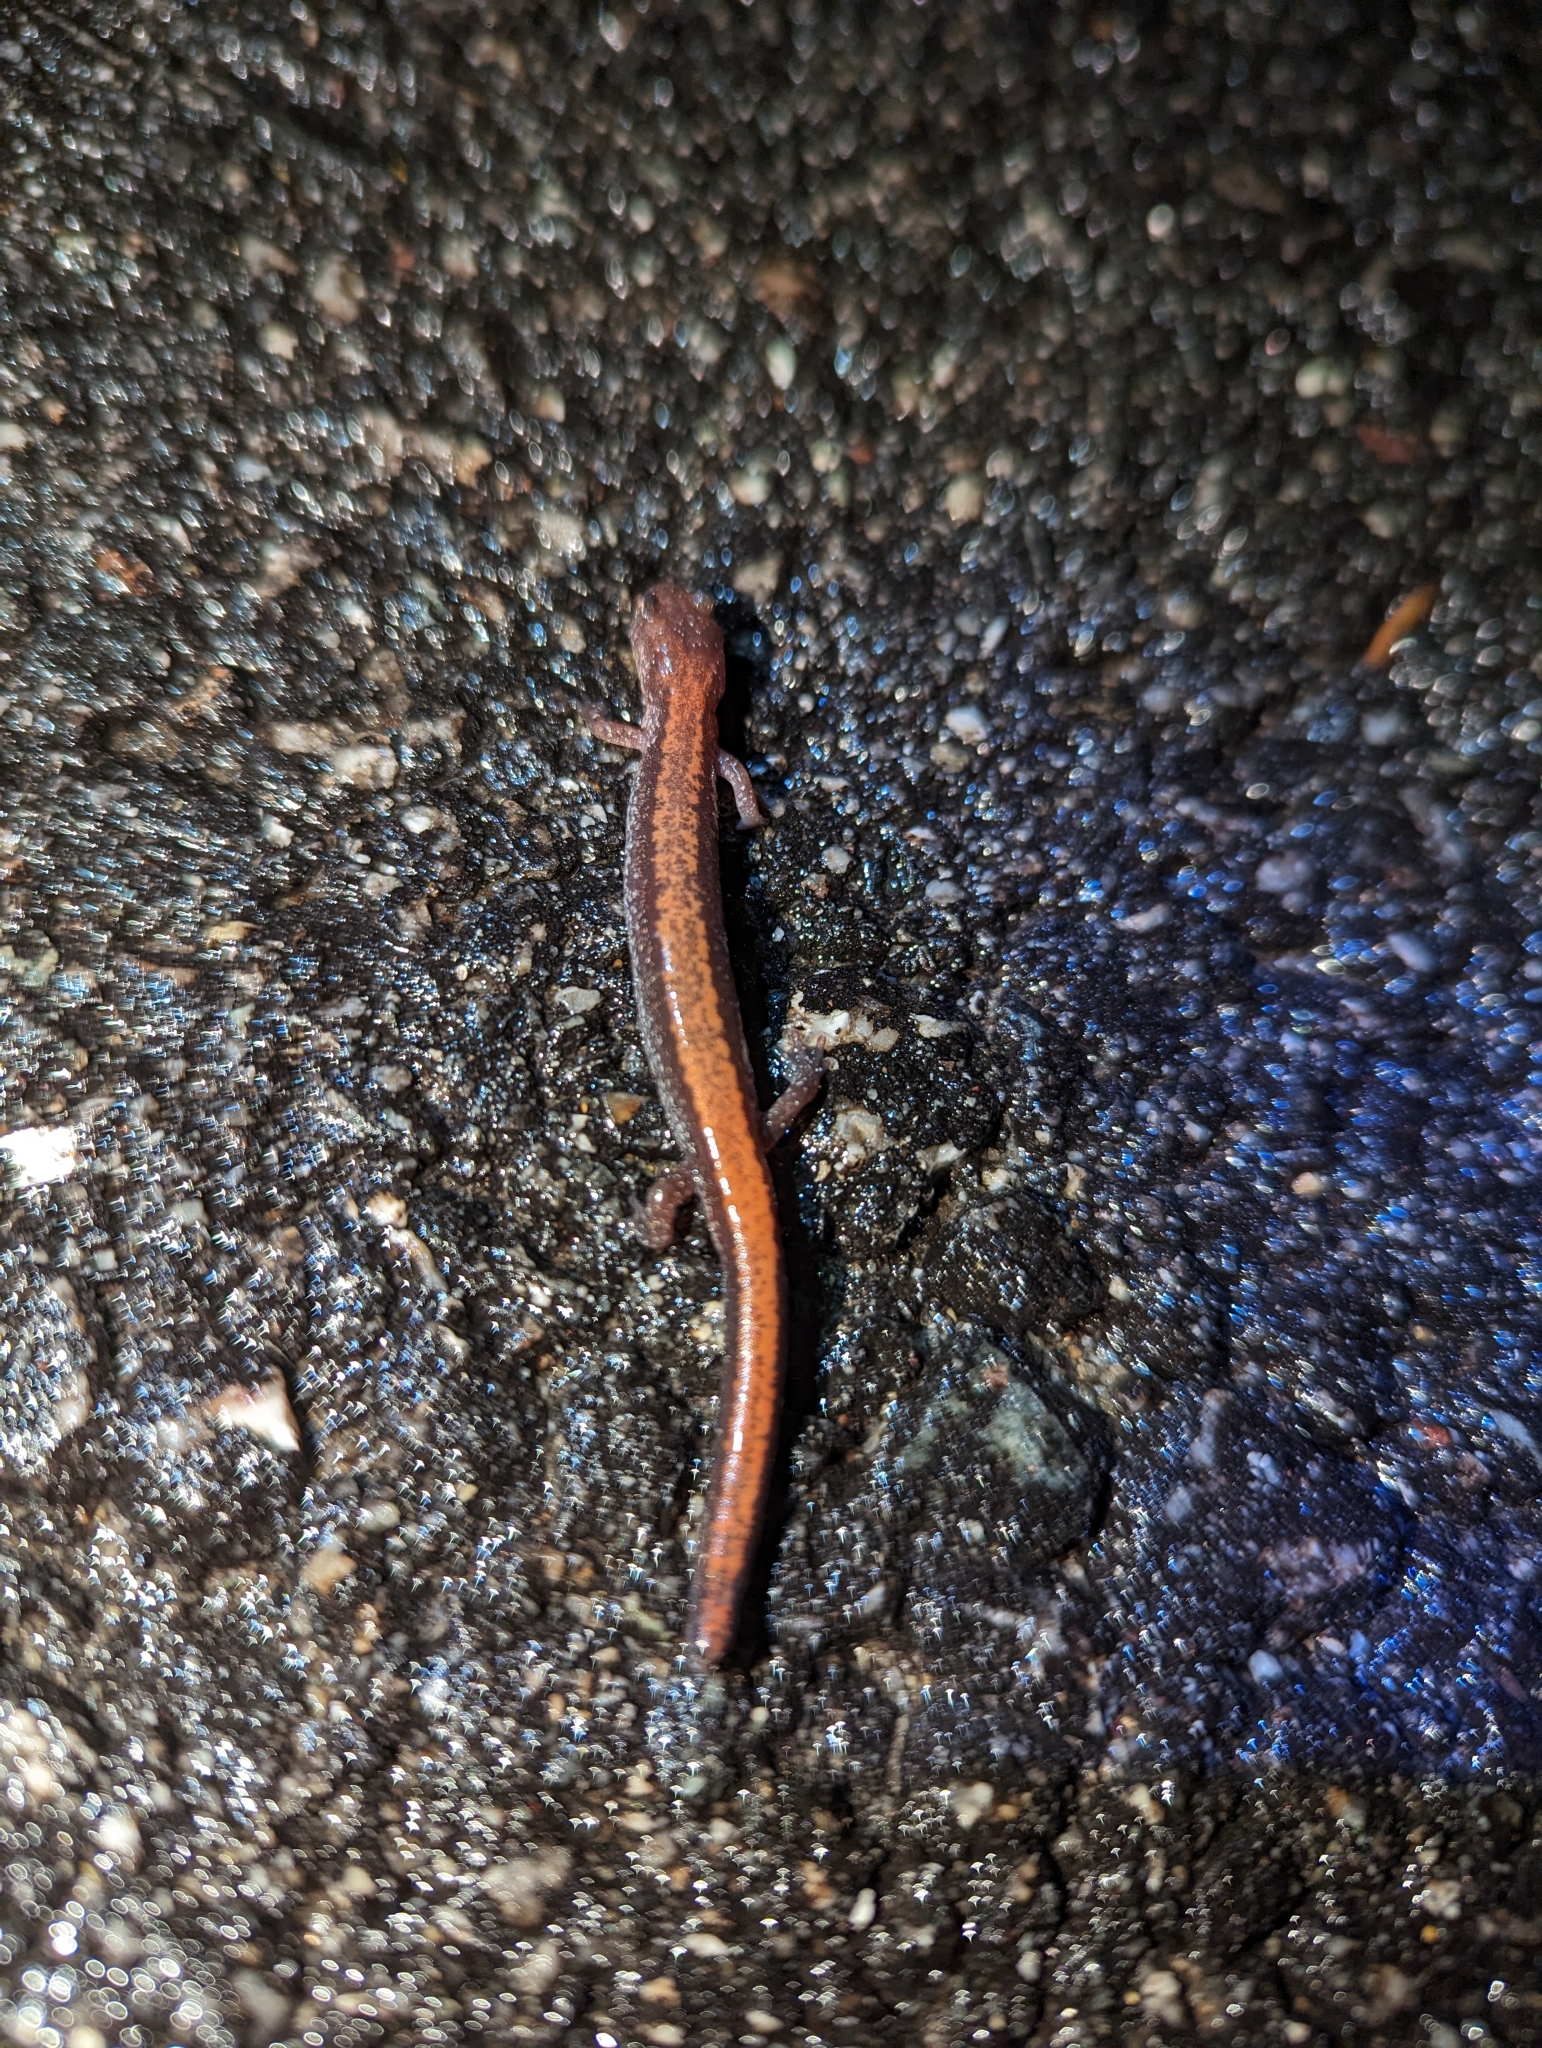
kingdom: Animalia
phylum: Chordata
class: Amphibia
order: Caudata
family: Plethodontidae
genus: Plethodon
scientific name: Plethodon cinereus
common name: Redback salamander
